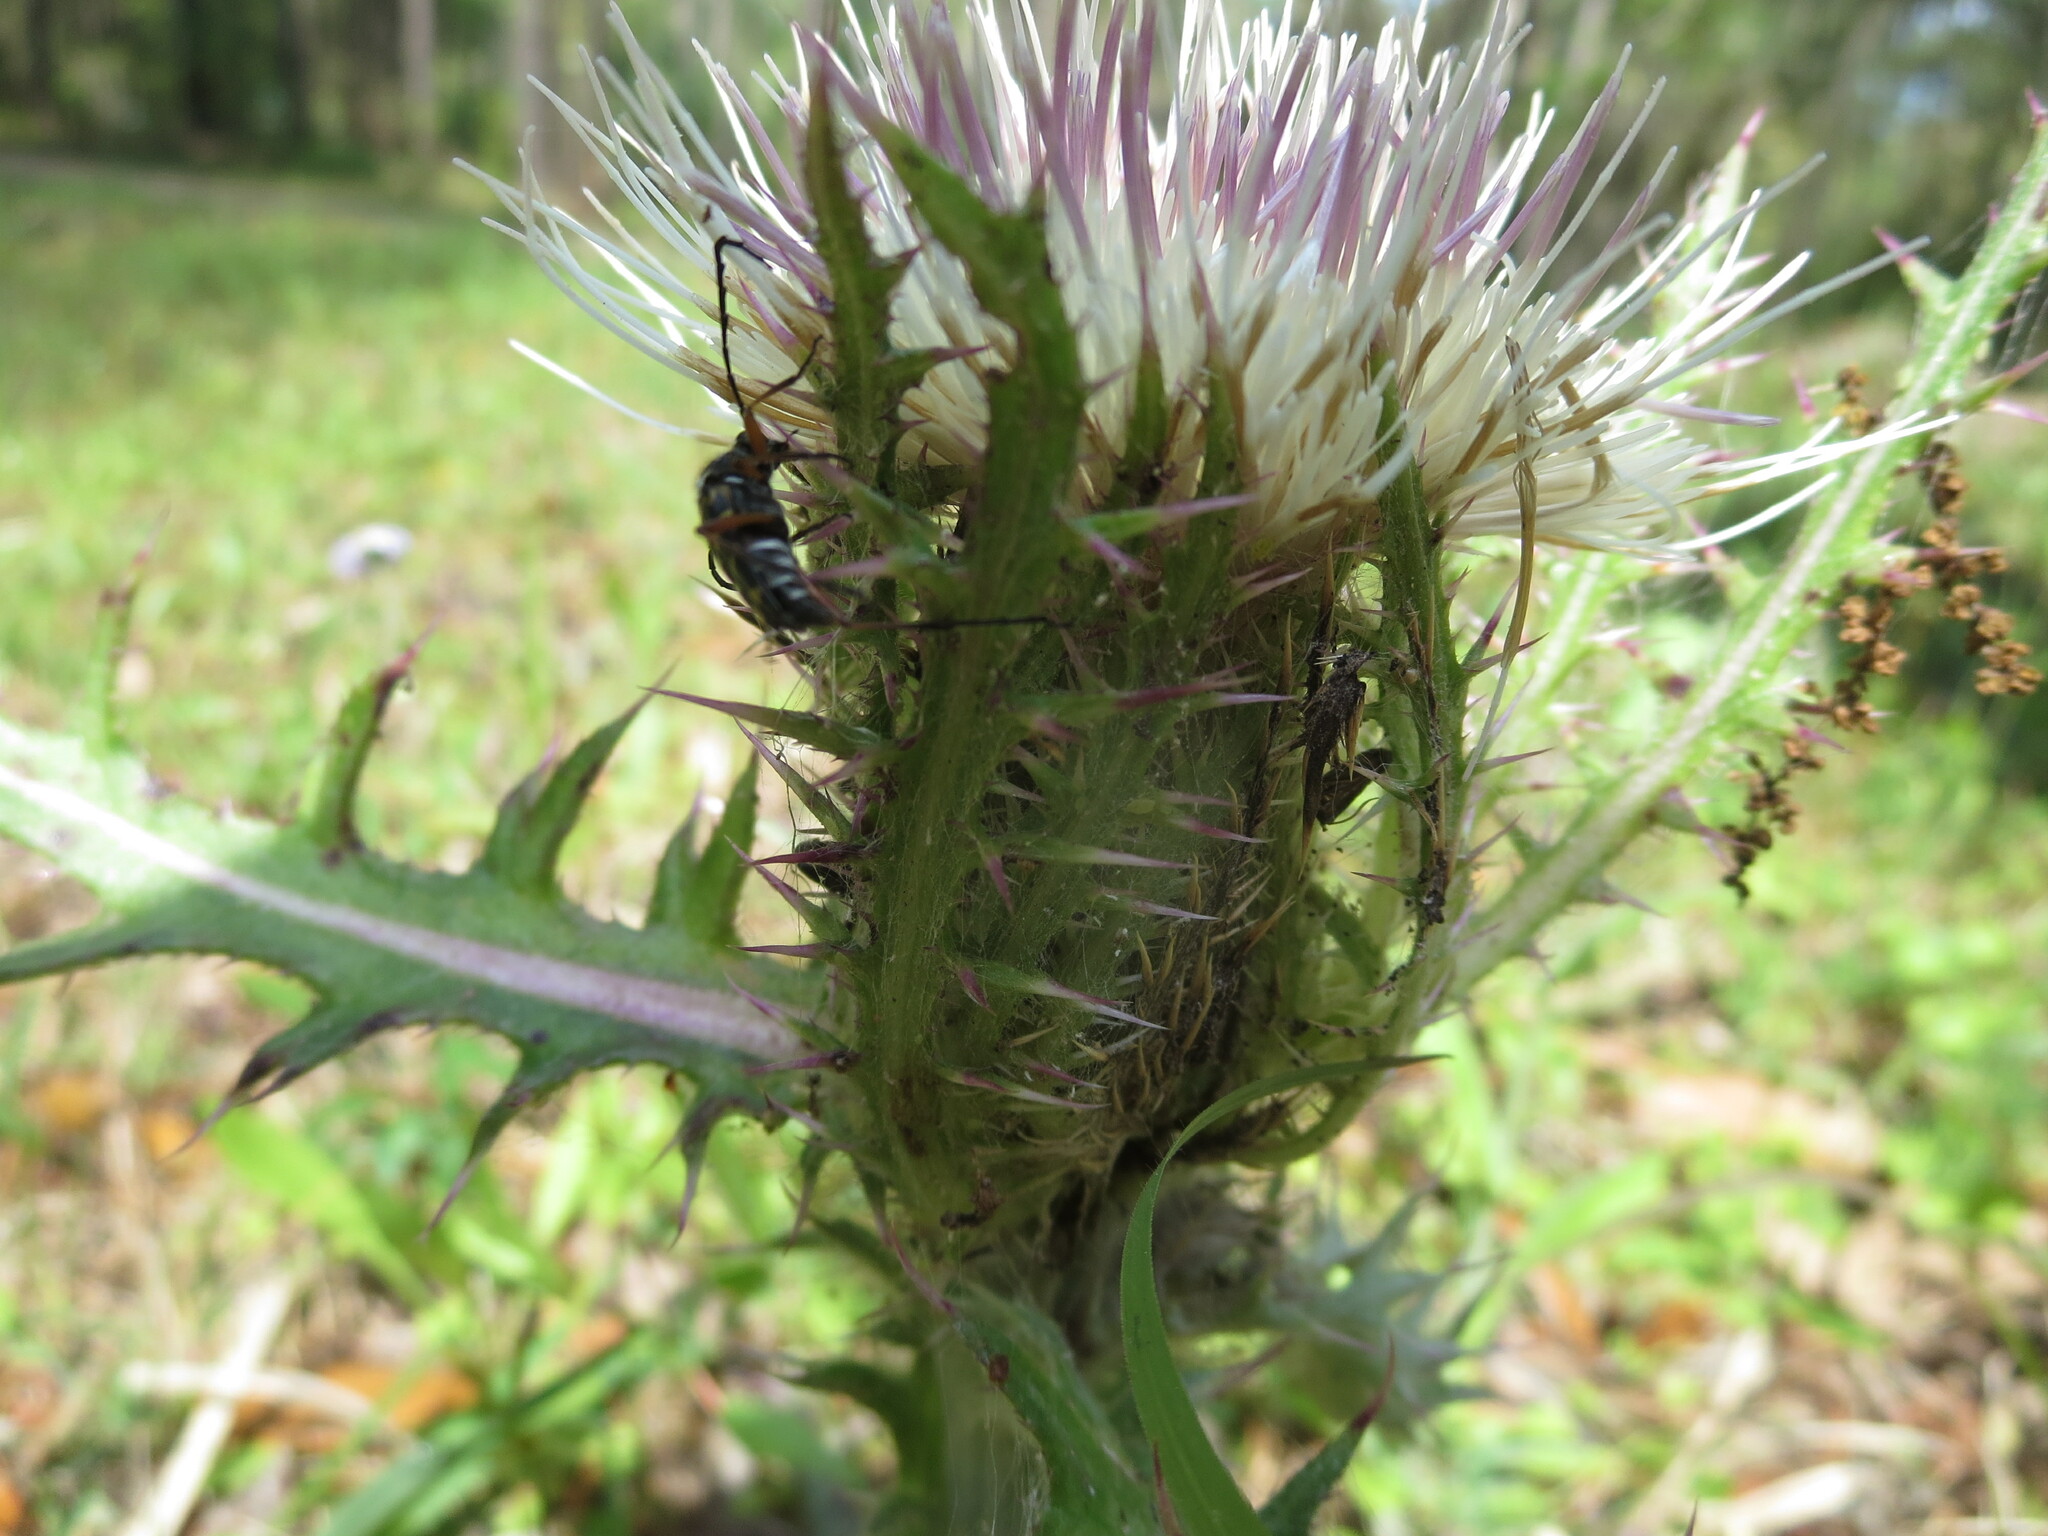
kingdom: Animalia
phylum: Arthropoda
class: Insecta
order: Coleoptera
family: Cerambycidae
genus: Typocerus
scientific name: Typocerus zebra
